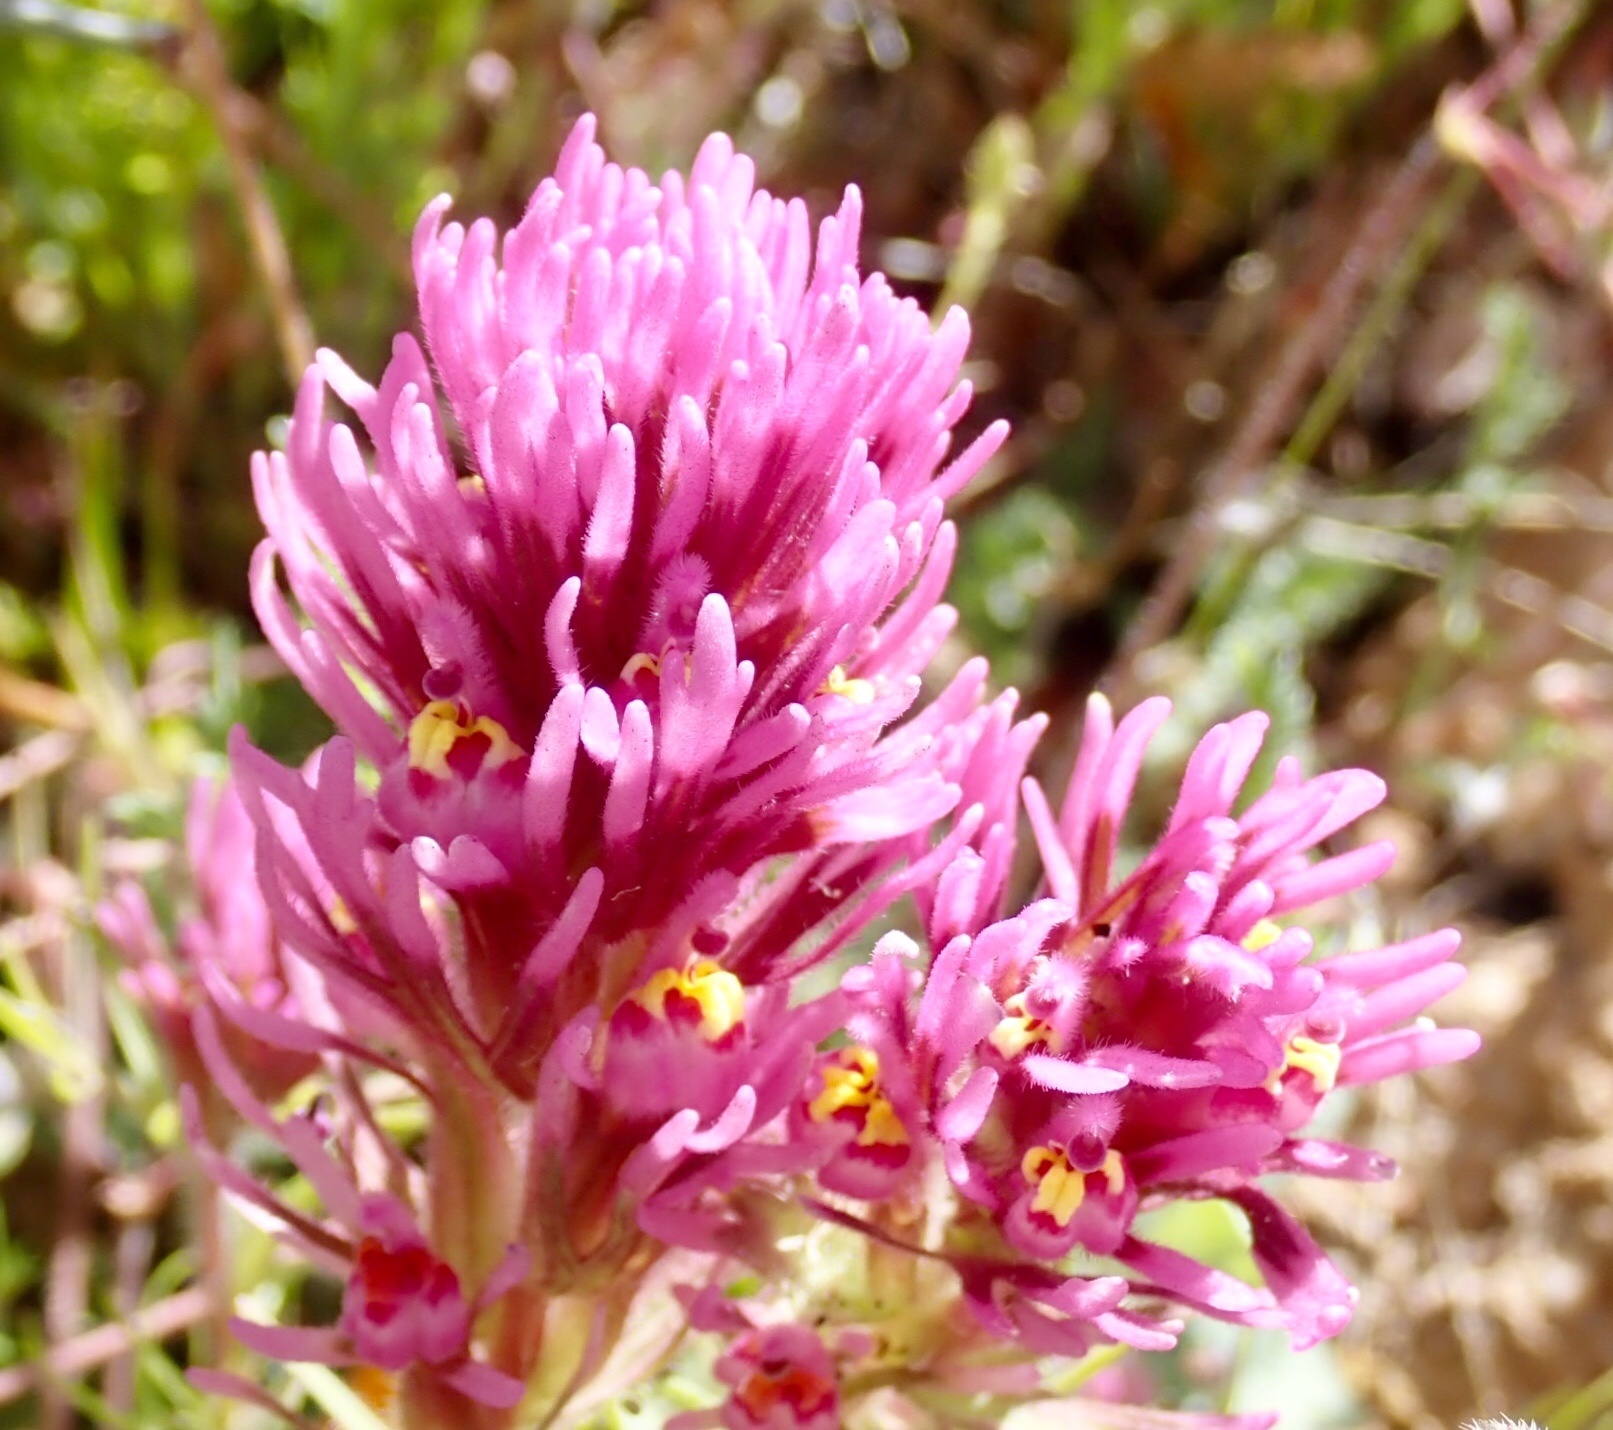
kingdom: Plantae
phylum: Tracheophyta
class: Magnoliopsida
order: Lamiales
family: Orobanchaceae
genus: Castilleja
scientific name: Castilleja exserta
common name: Purple owl-clover
